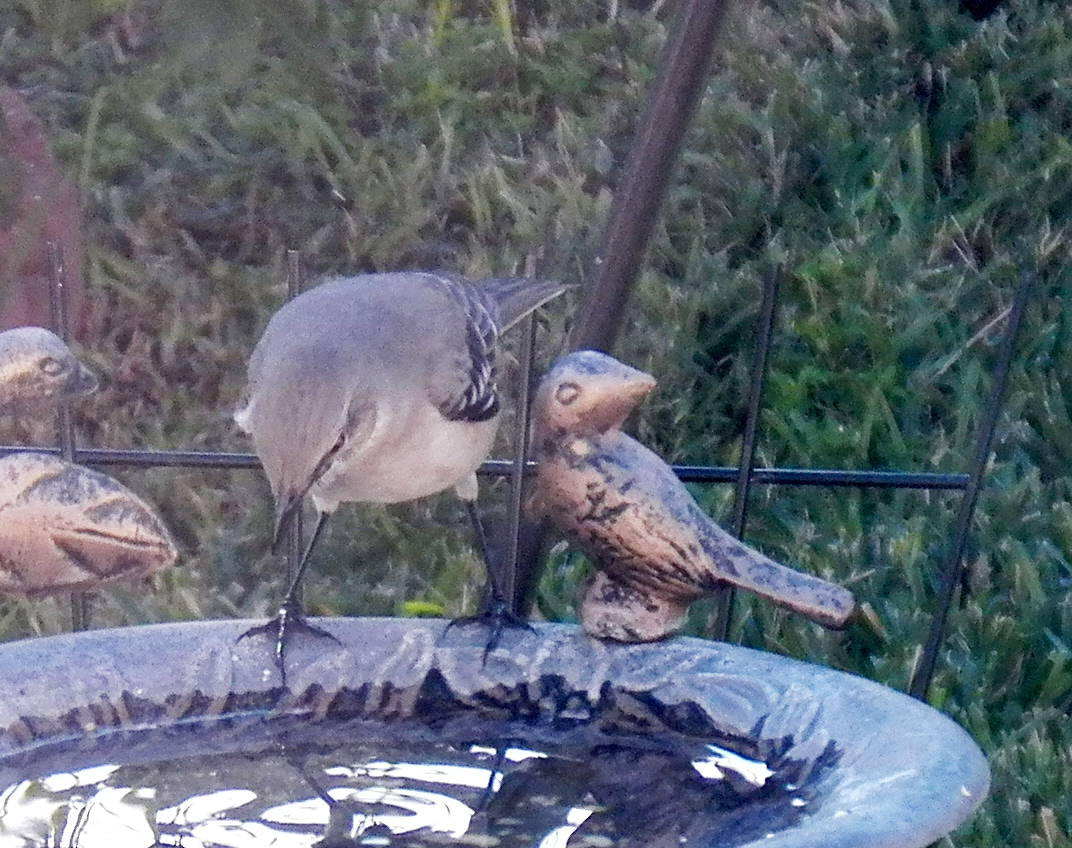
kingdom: Animalia
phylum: Chordata
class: Aves
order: Passeriformes
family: Mimidae
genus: Mimus
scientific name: Mimus polyglottos
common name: Northern mockingbird
